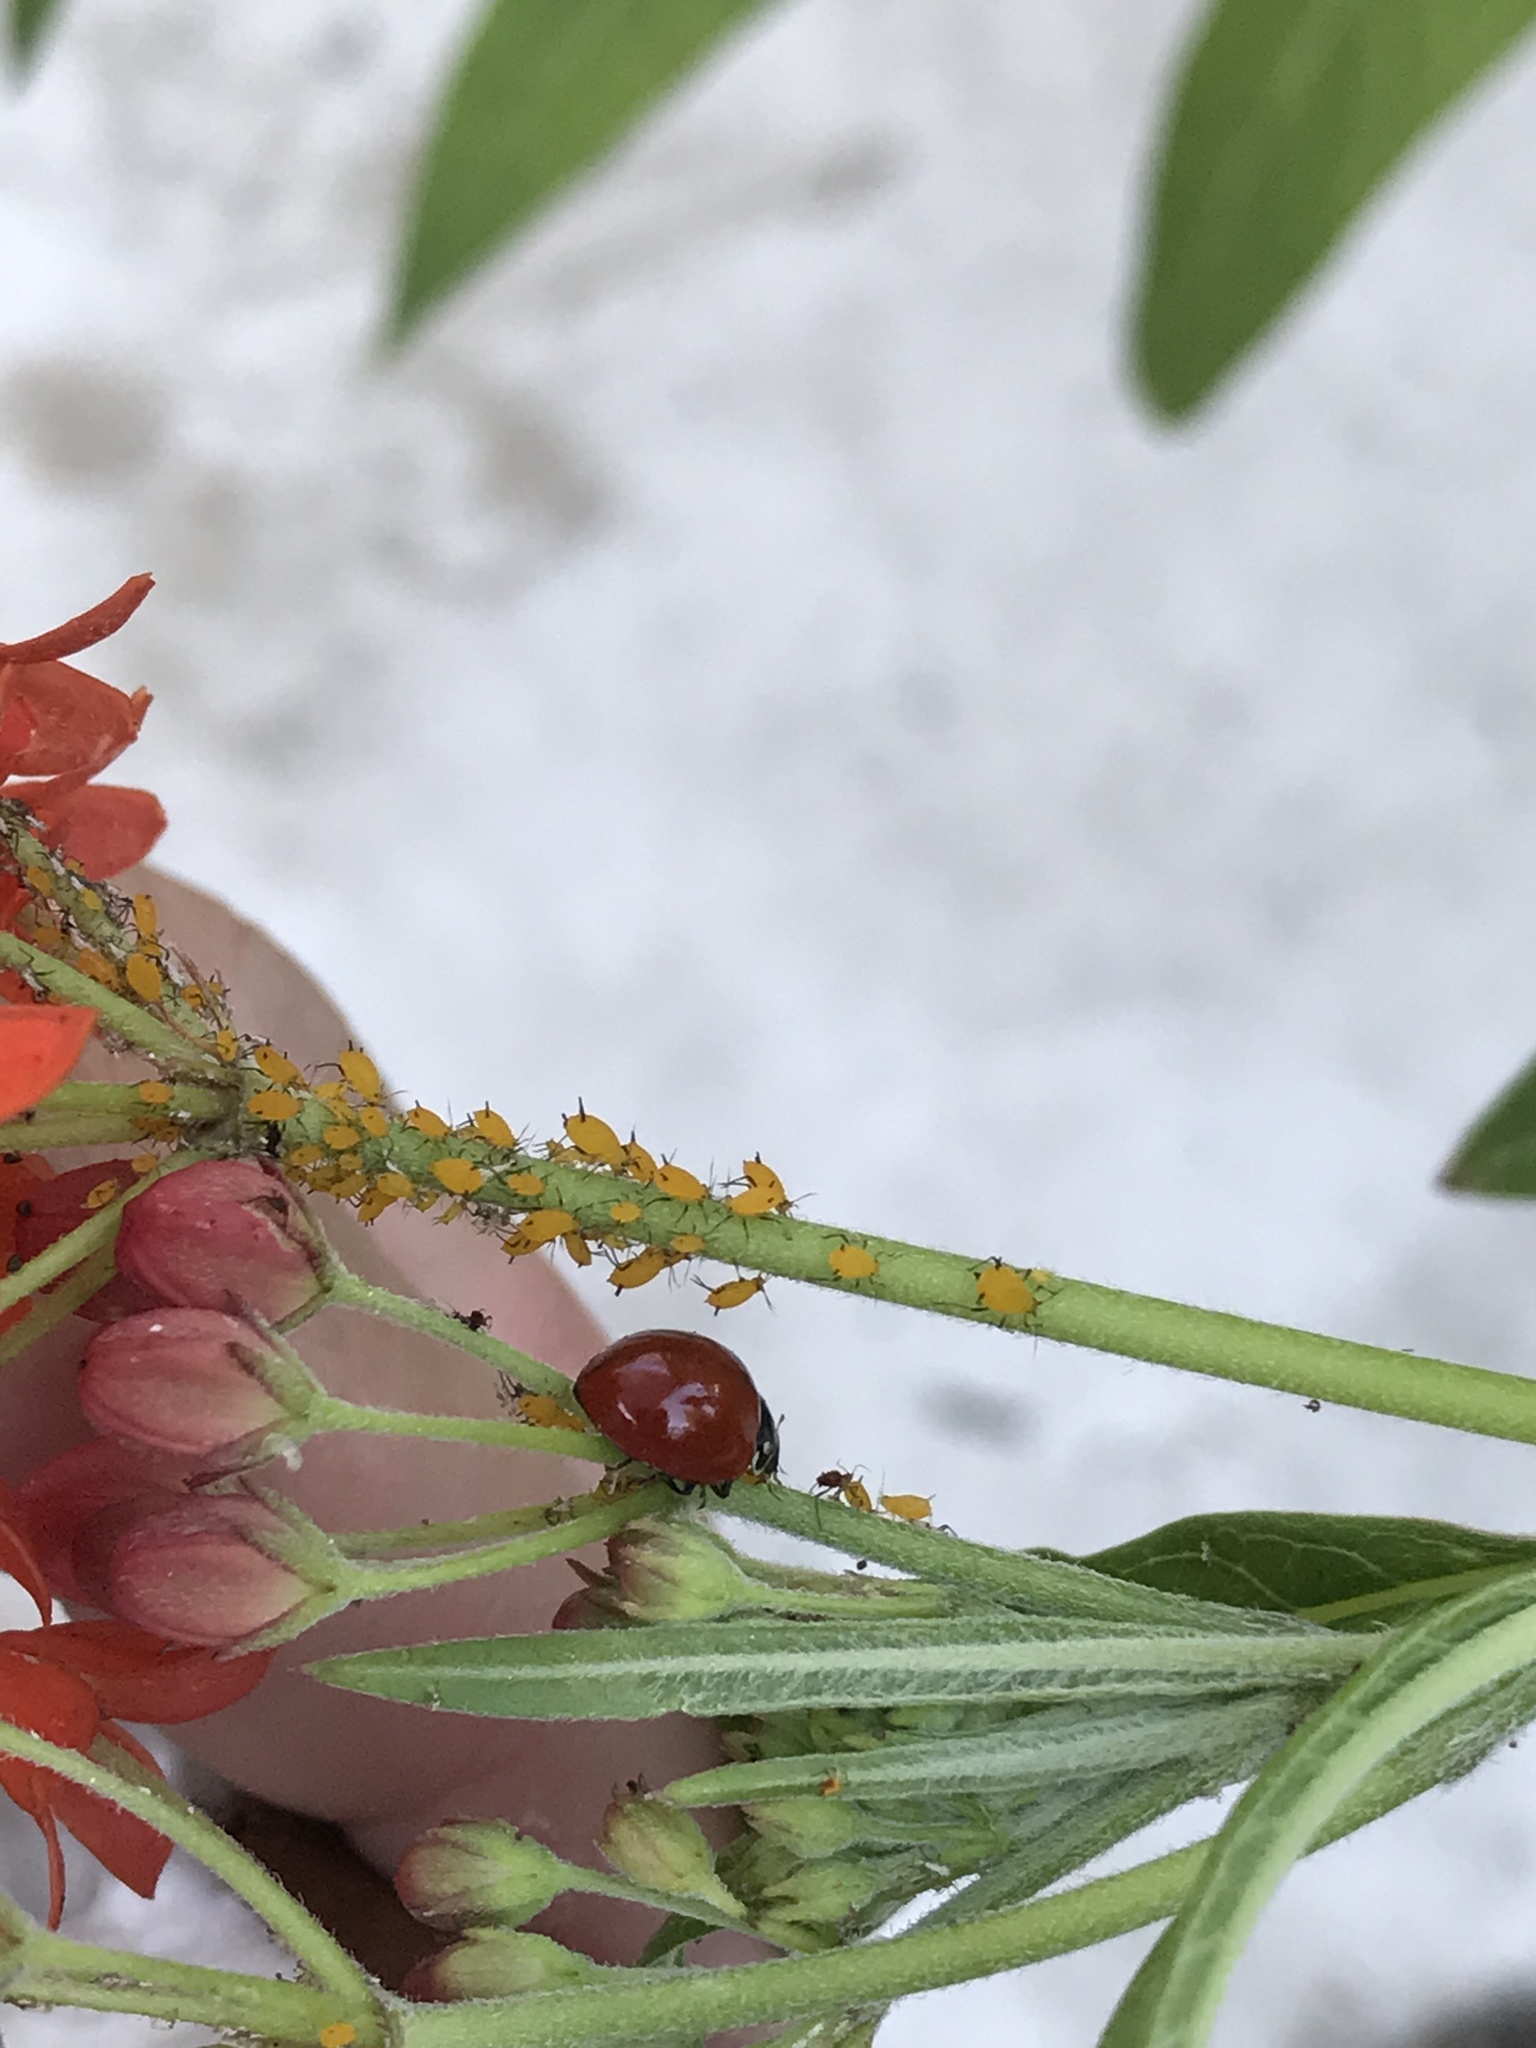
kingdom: Animalia
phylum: Arthropoda
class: Insecta
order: Coleoptera
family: Coccinellidae
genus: Cycloneda
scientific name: Cycloneda sanguinea
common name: Ladybird beetle
